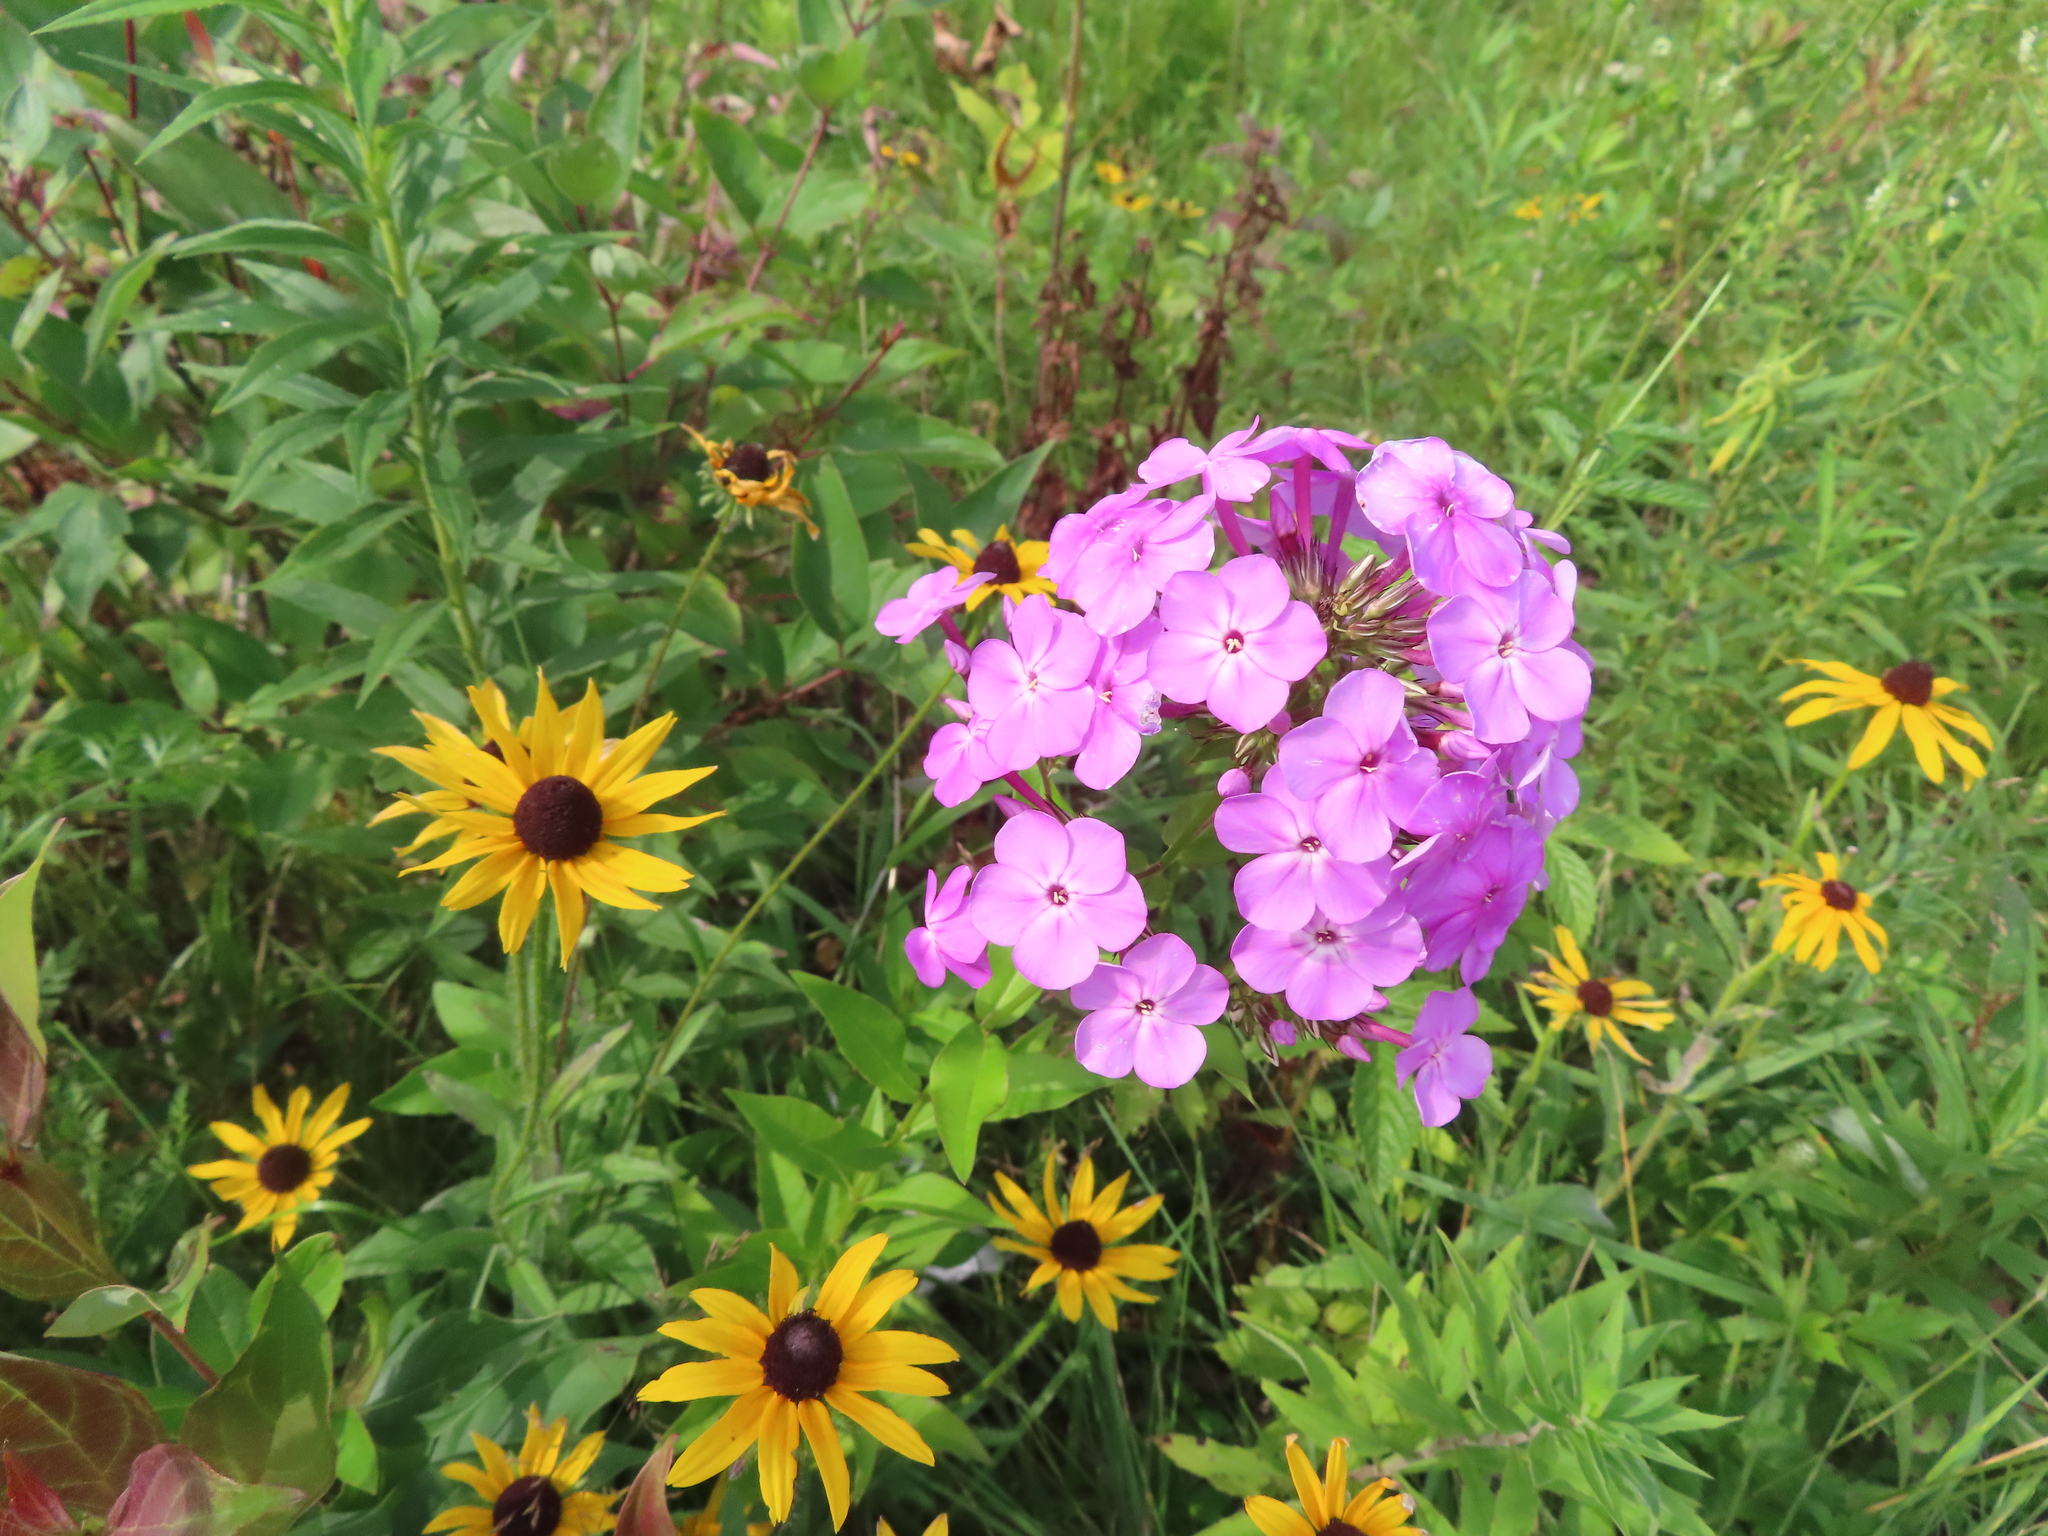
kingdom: Plantae
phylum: Tracheophyta
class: Magnoliopsida
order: Ericales
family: Polemoniaceae
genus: Phlox
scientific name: Phlox paniculata
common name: Fall phlox
